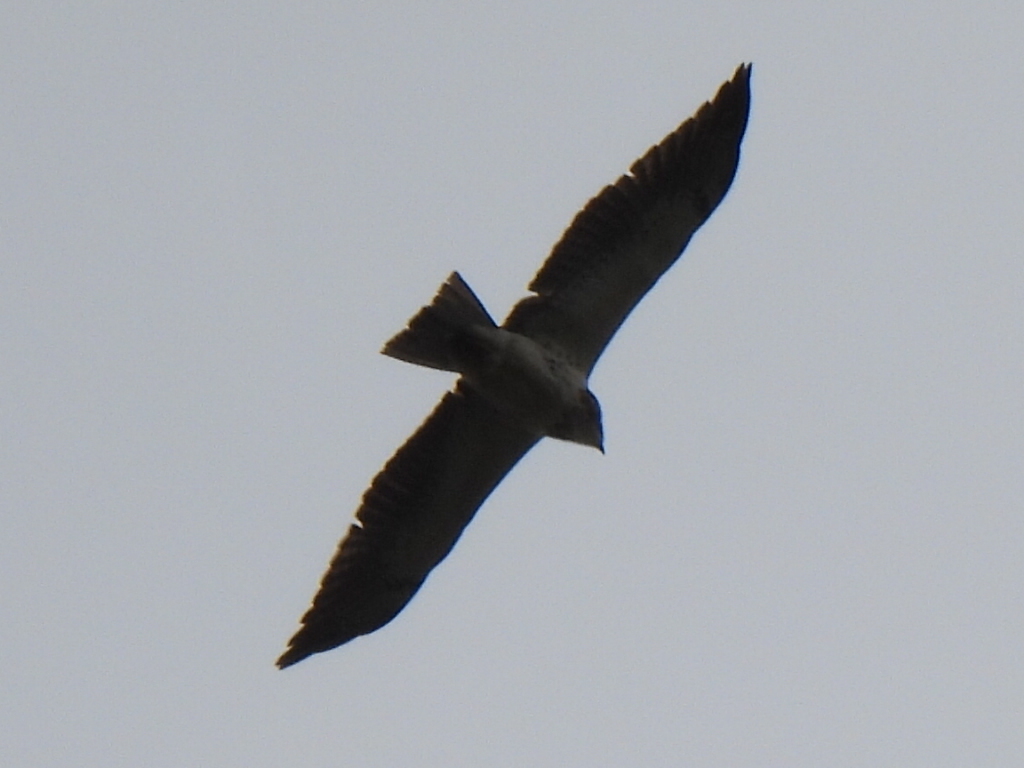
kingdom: Animalia
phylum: Chordata
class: Aves
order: Accipitriformes
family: Accipitridae
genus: Buteo
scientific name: Buteo swainsoni
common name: Swainson's hawk
